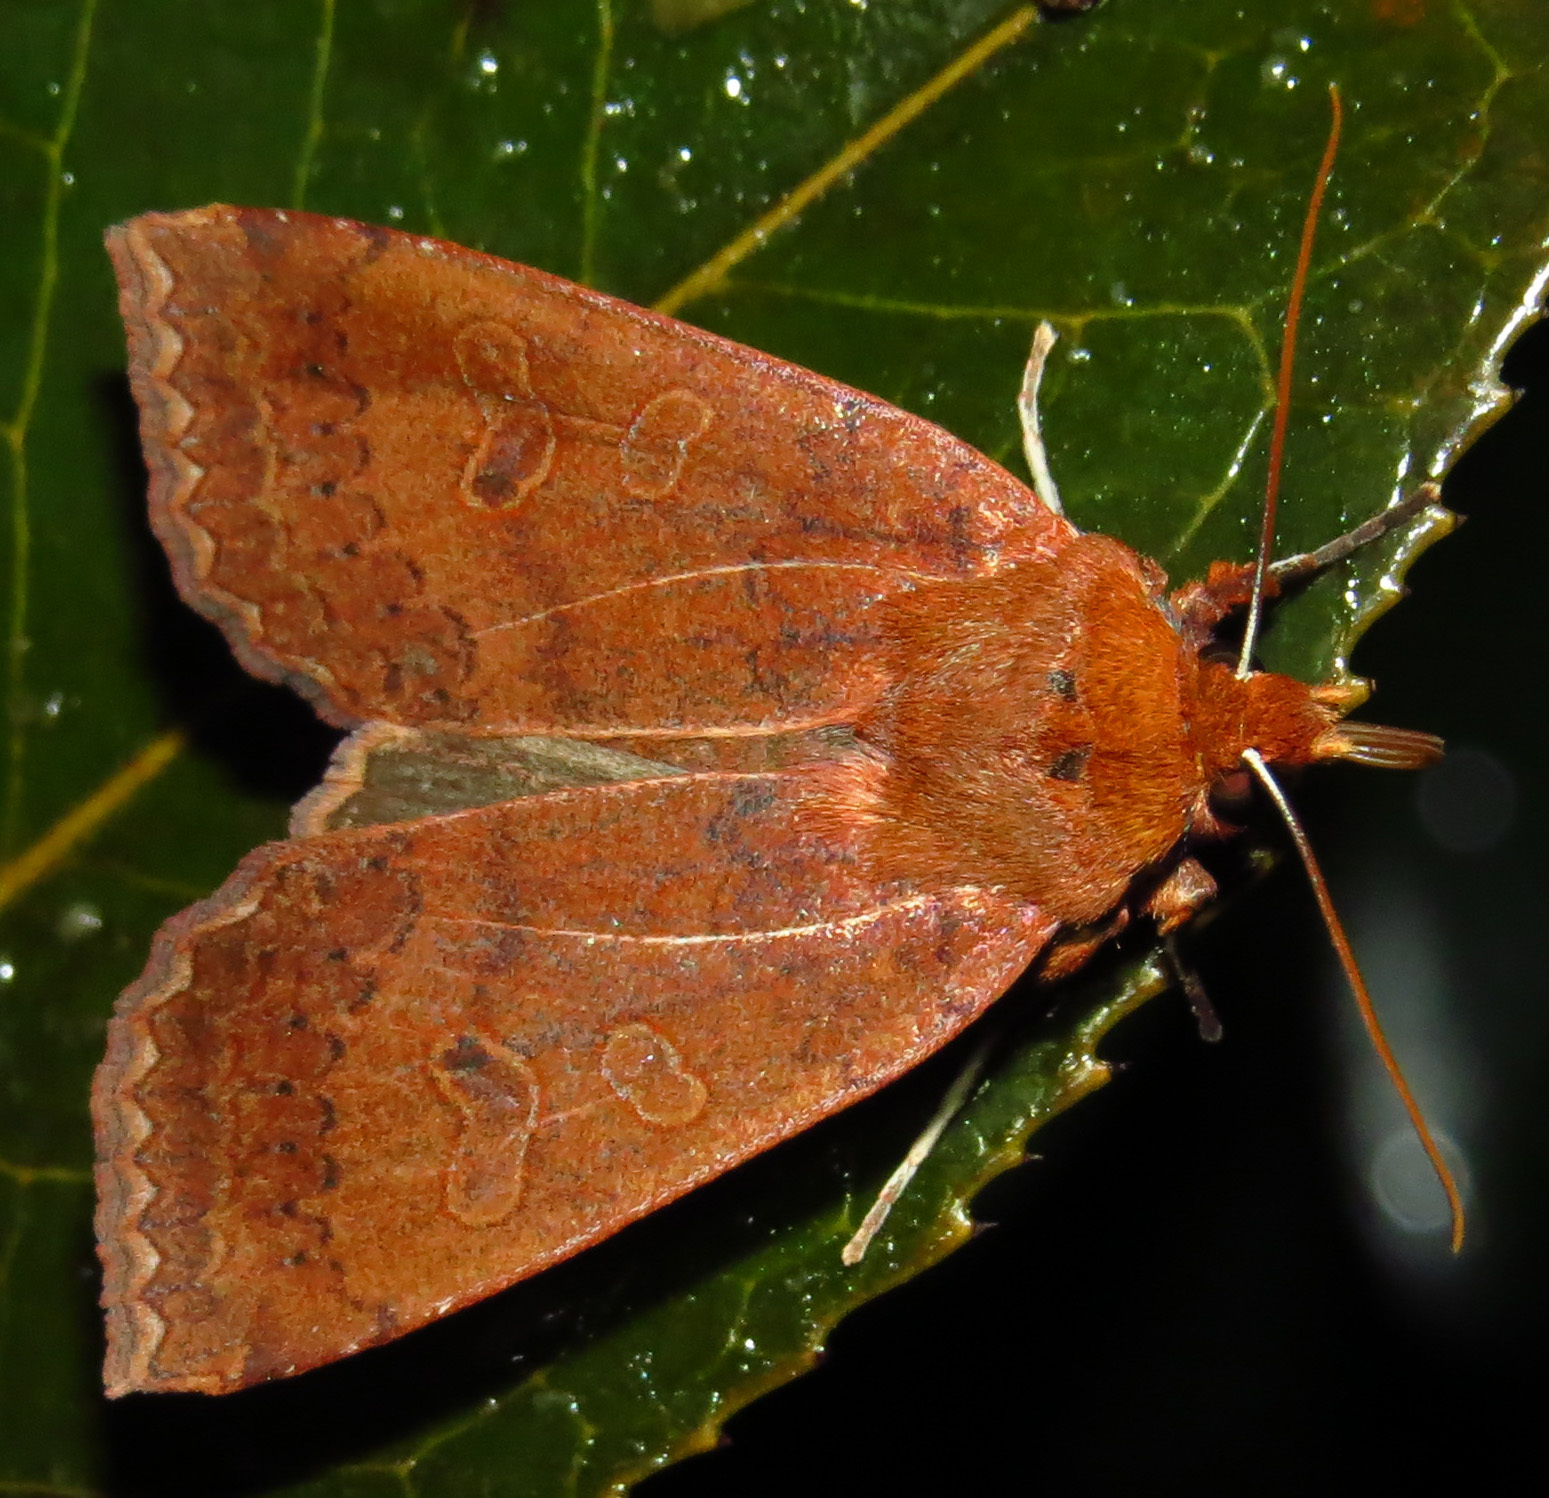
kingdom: Animalia
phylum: Arthropoda
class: Insecta
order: Lepidoptera
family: Noctuidae
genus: Metaxaglaea
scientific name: Metaxaglaea viatica
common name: Roadside sallow
